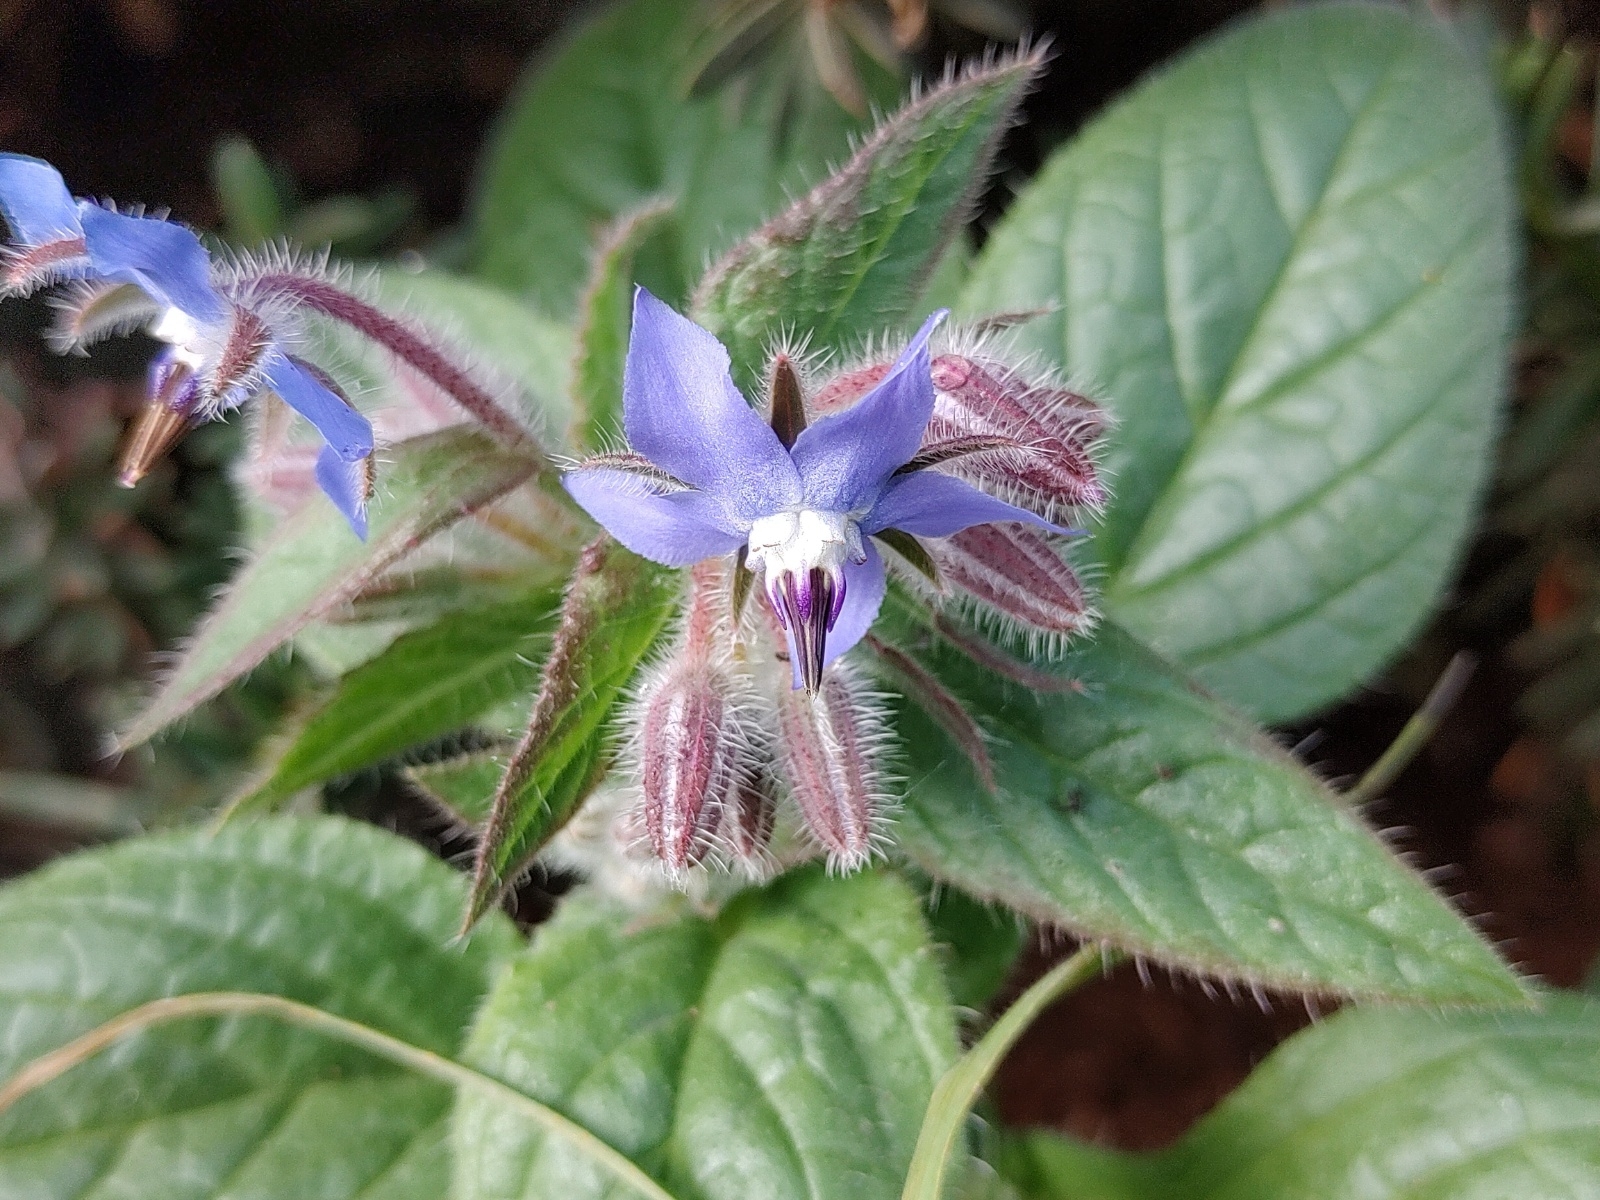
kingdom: Plantae
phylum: Tracheophyta
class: Magnoliopsida
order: Boraginales
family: Boraginaceae
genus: Borago
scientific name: Borago officinalis
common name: Borage
